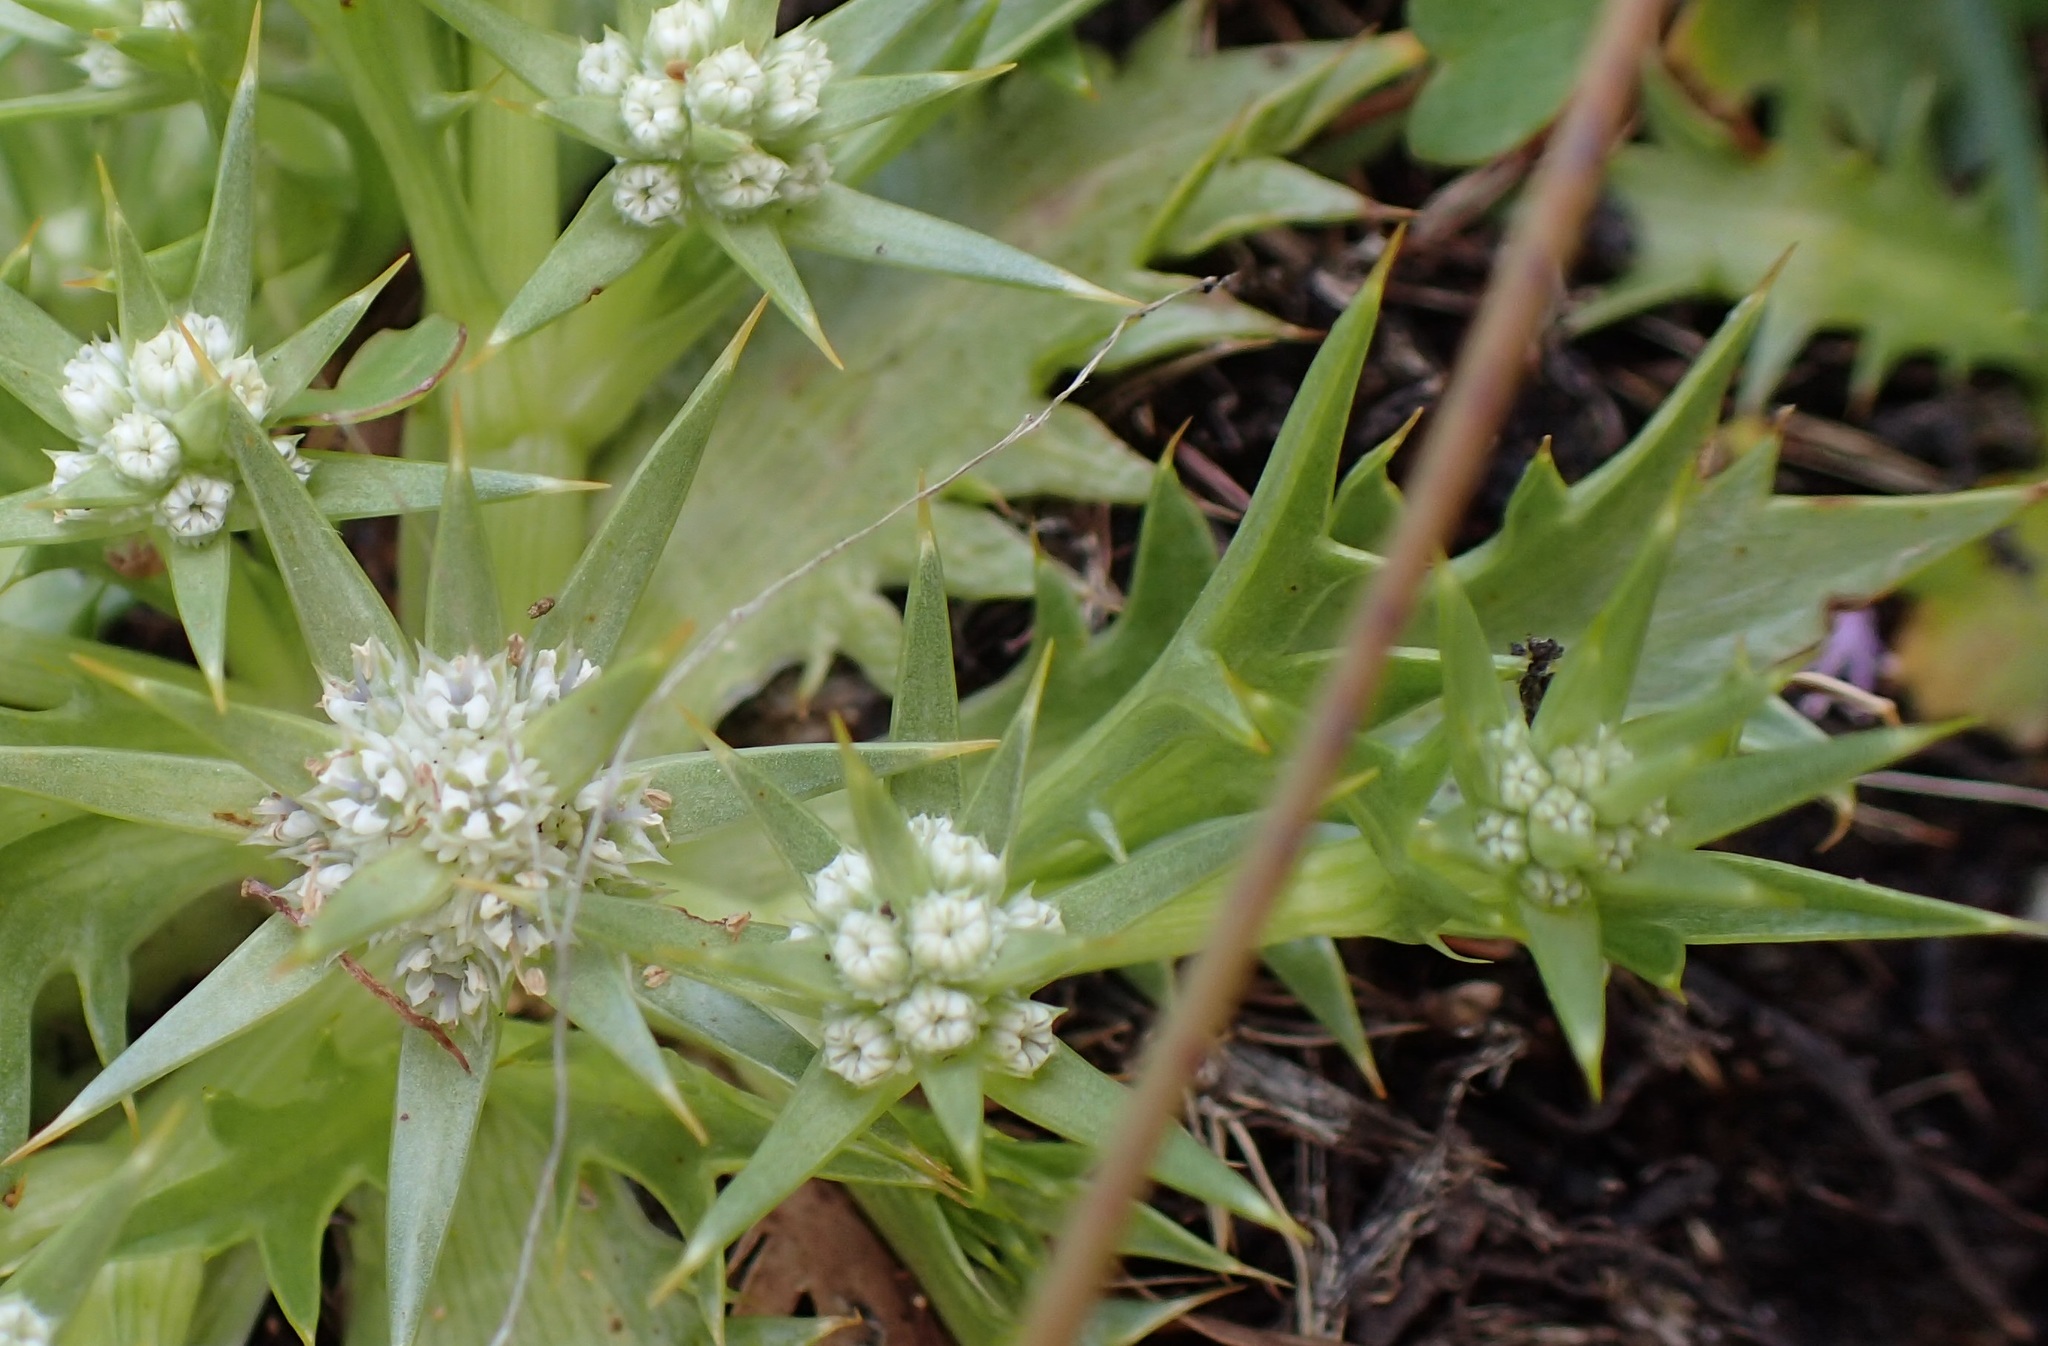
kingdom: Plantae
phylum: Tracheophyta
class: Magnoliopsida
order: Apiales
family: Apiaceae
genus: Eryngium
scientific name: Eryngium vesiculosum
